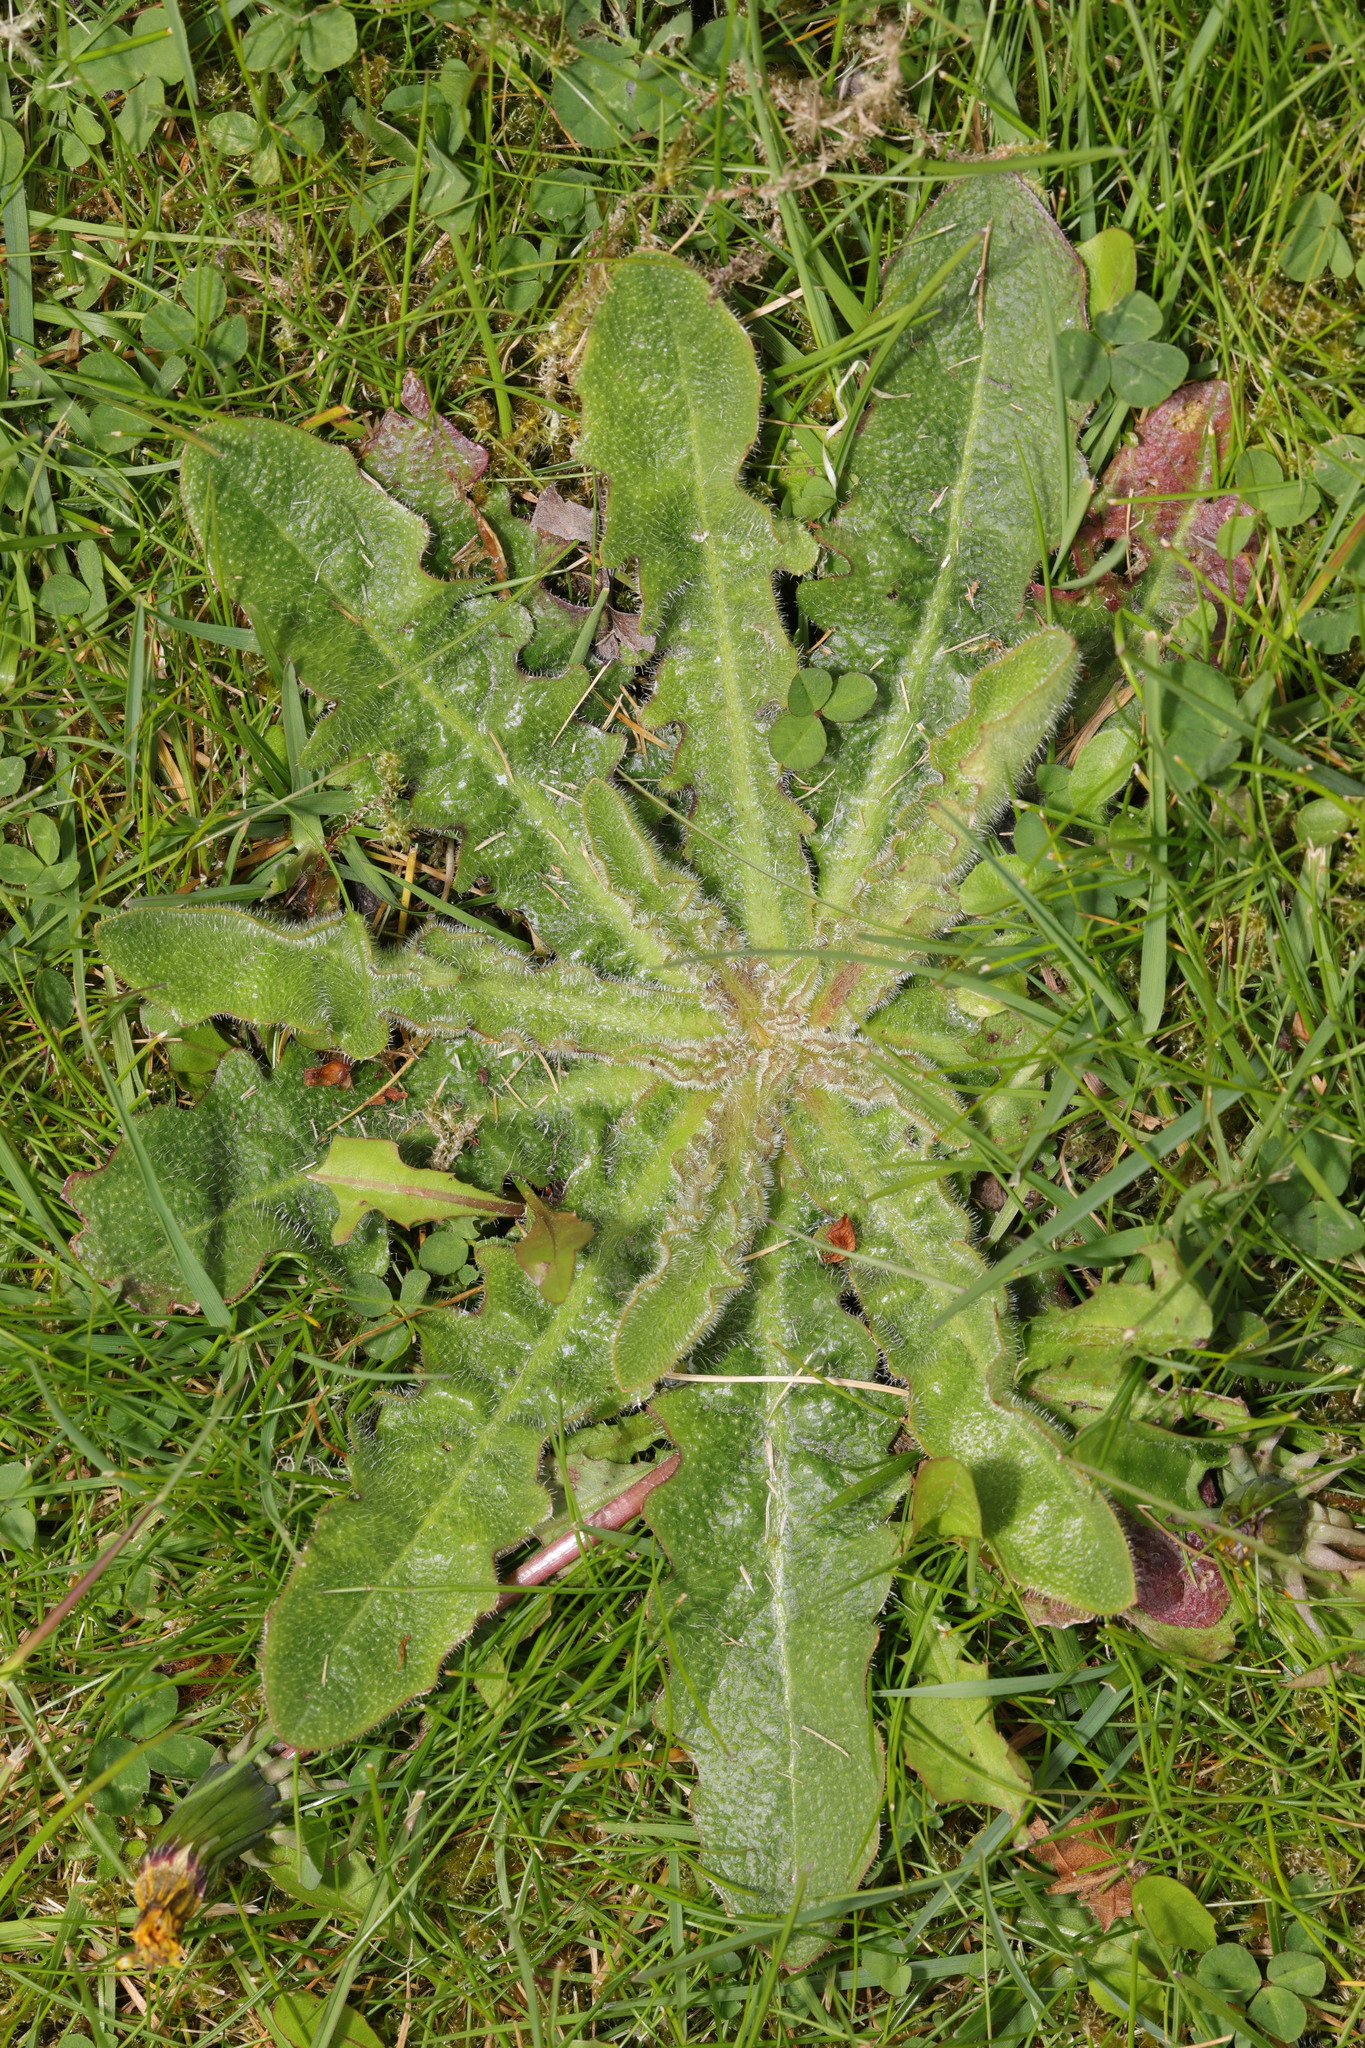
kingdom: Plantae
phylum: Tracheophyta
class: Magnoliopsida
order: Asterales
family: Asteraceae
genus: Hypochaeris
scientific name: Hypochaeris radicata
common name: Flatweed
